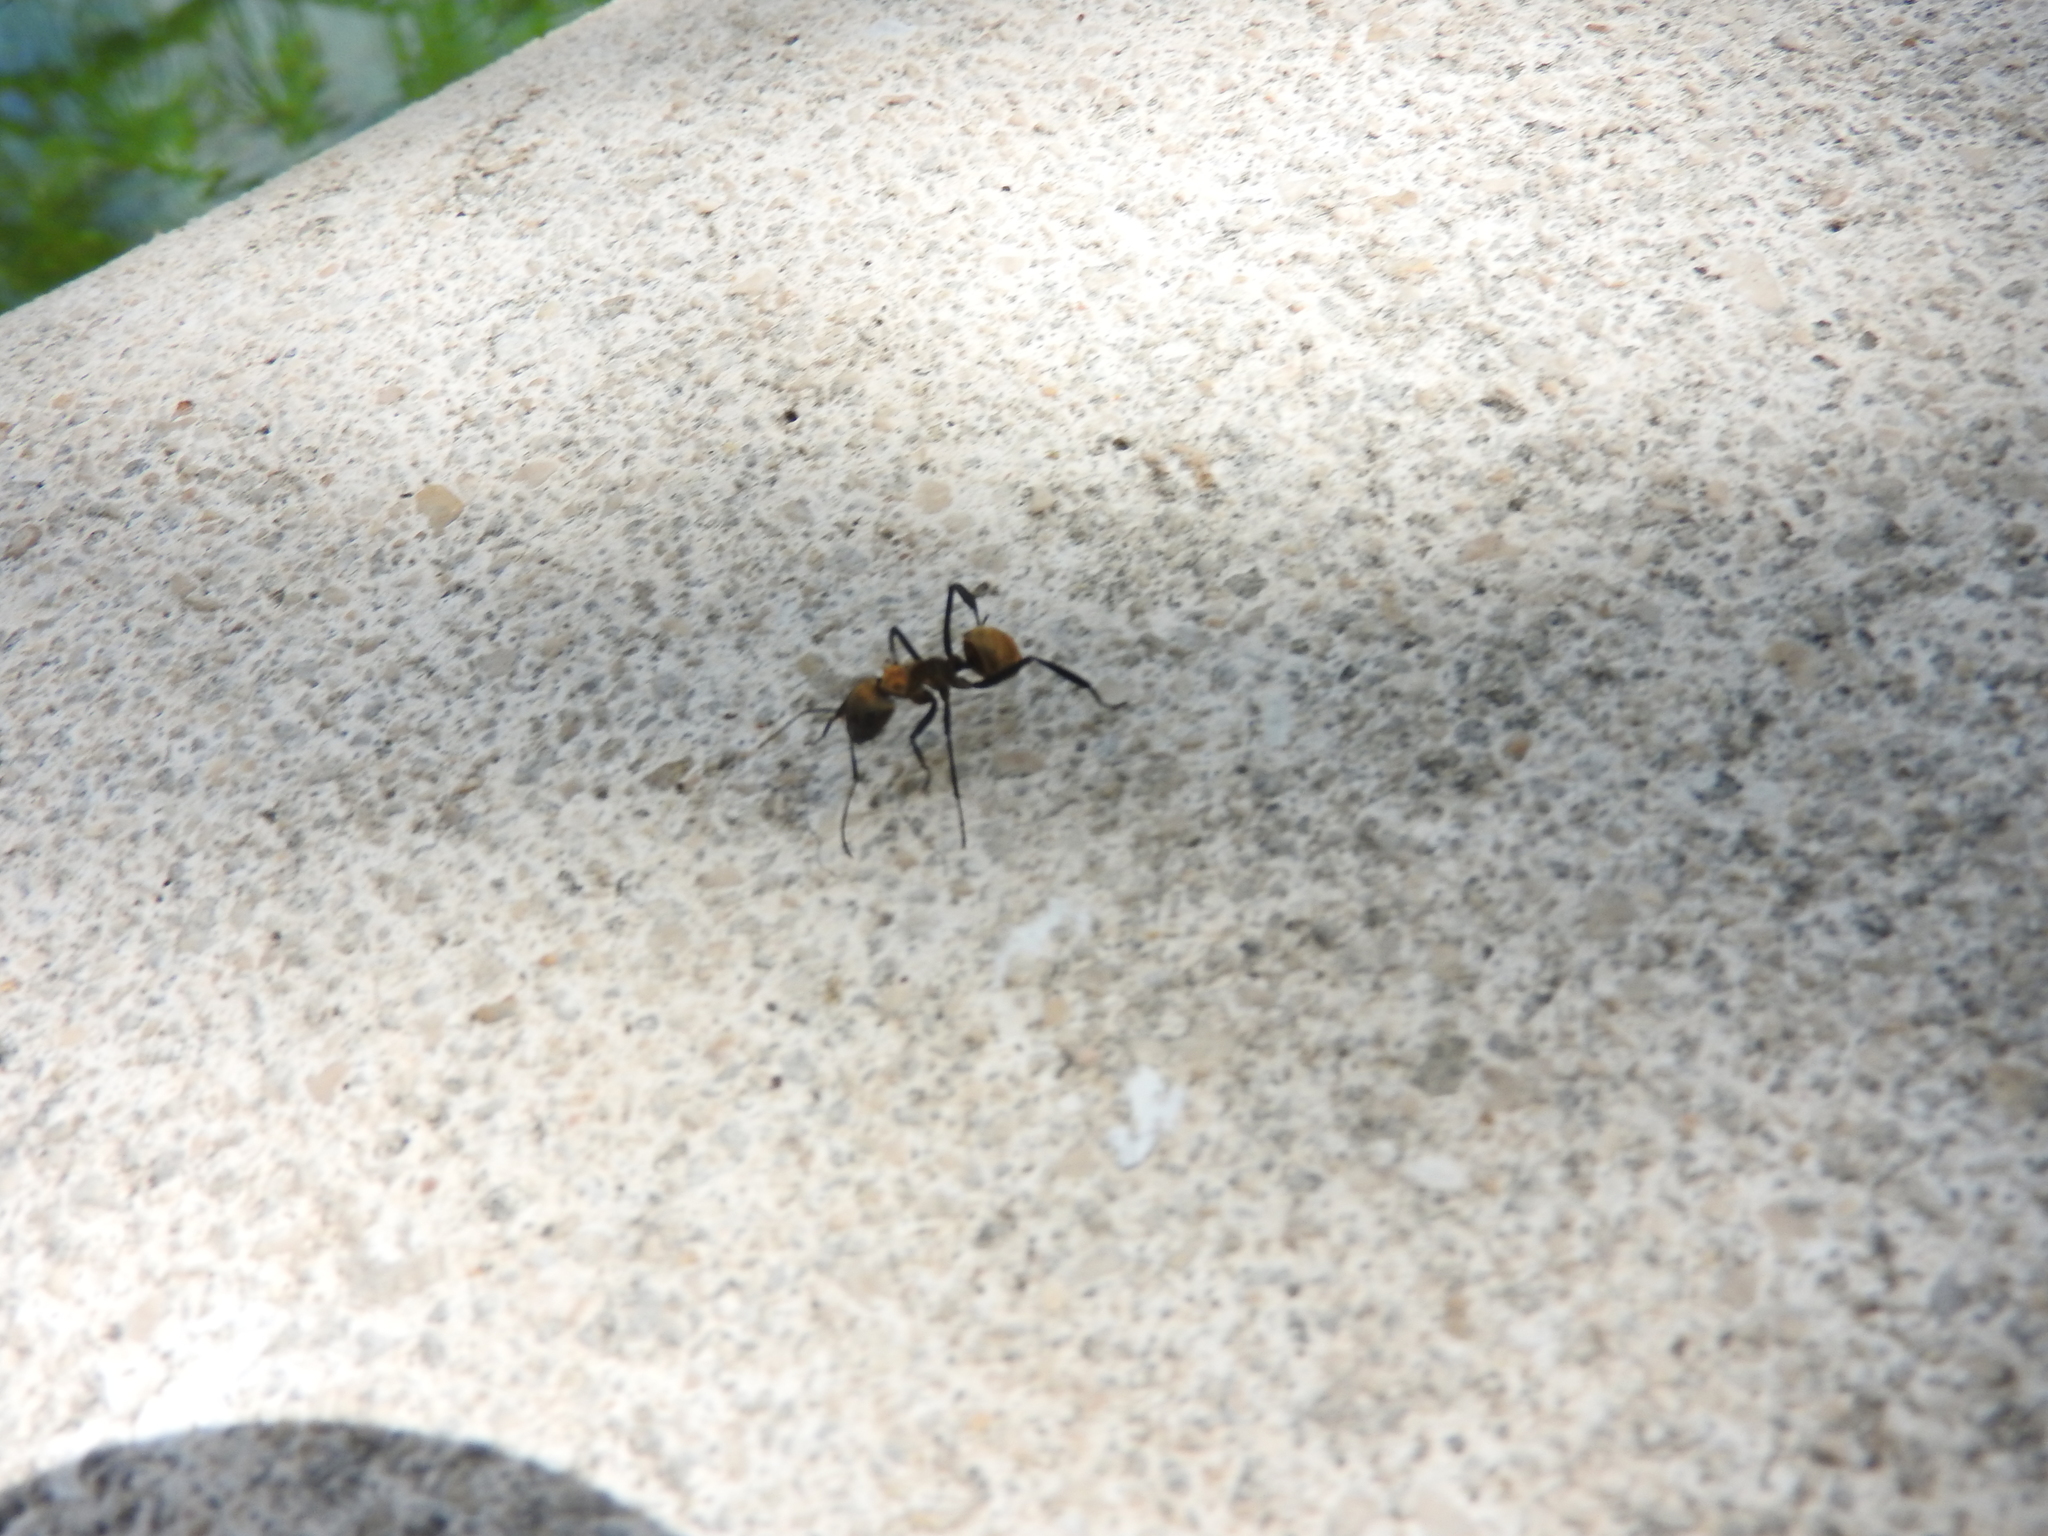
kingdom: Animalia
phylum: Arthropoda
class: Insecta
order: Hymenoptera
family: Formicidae
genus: Camponotus
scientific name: Camponotus sericeiventris
